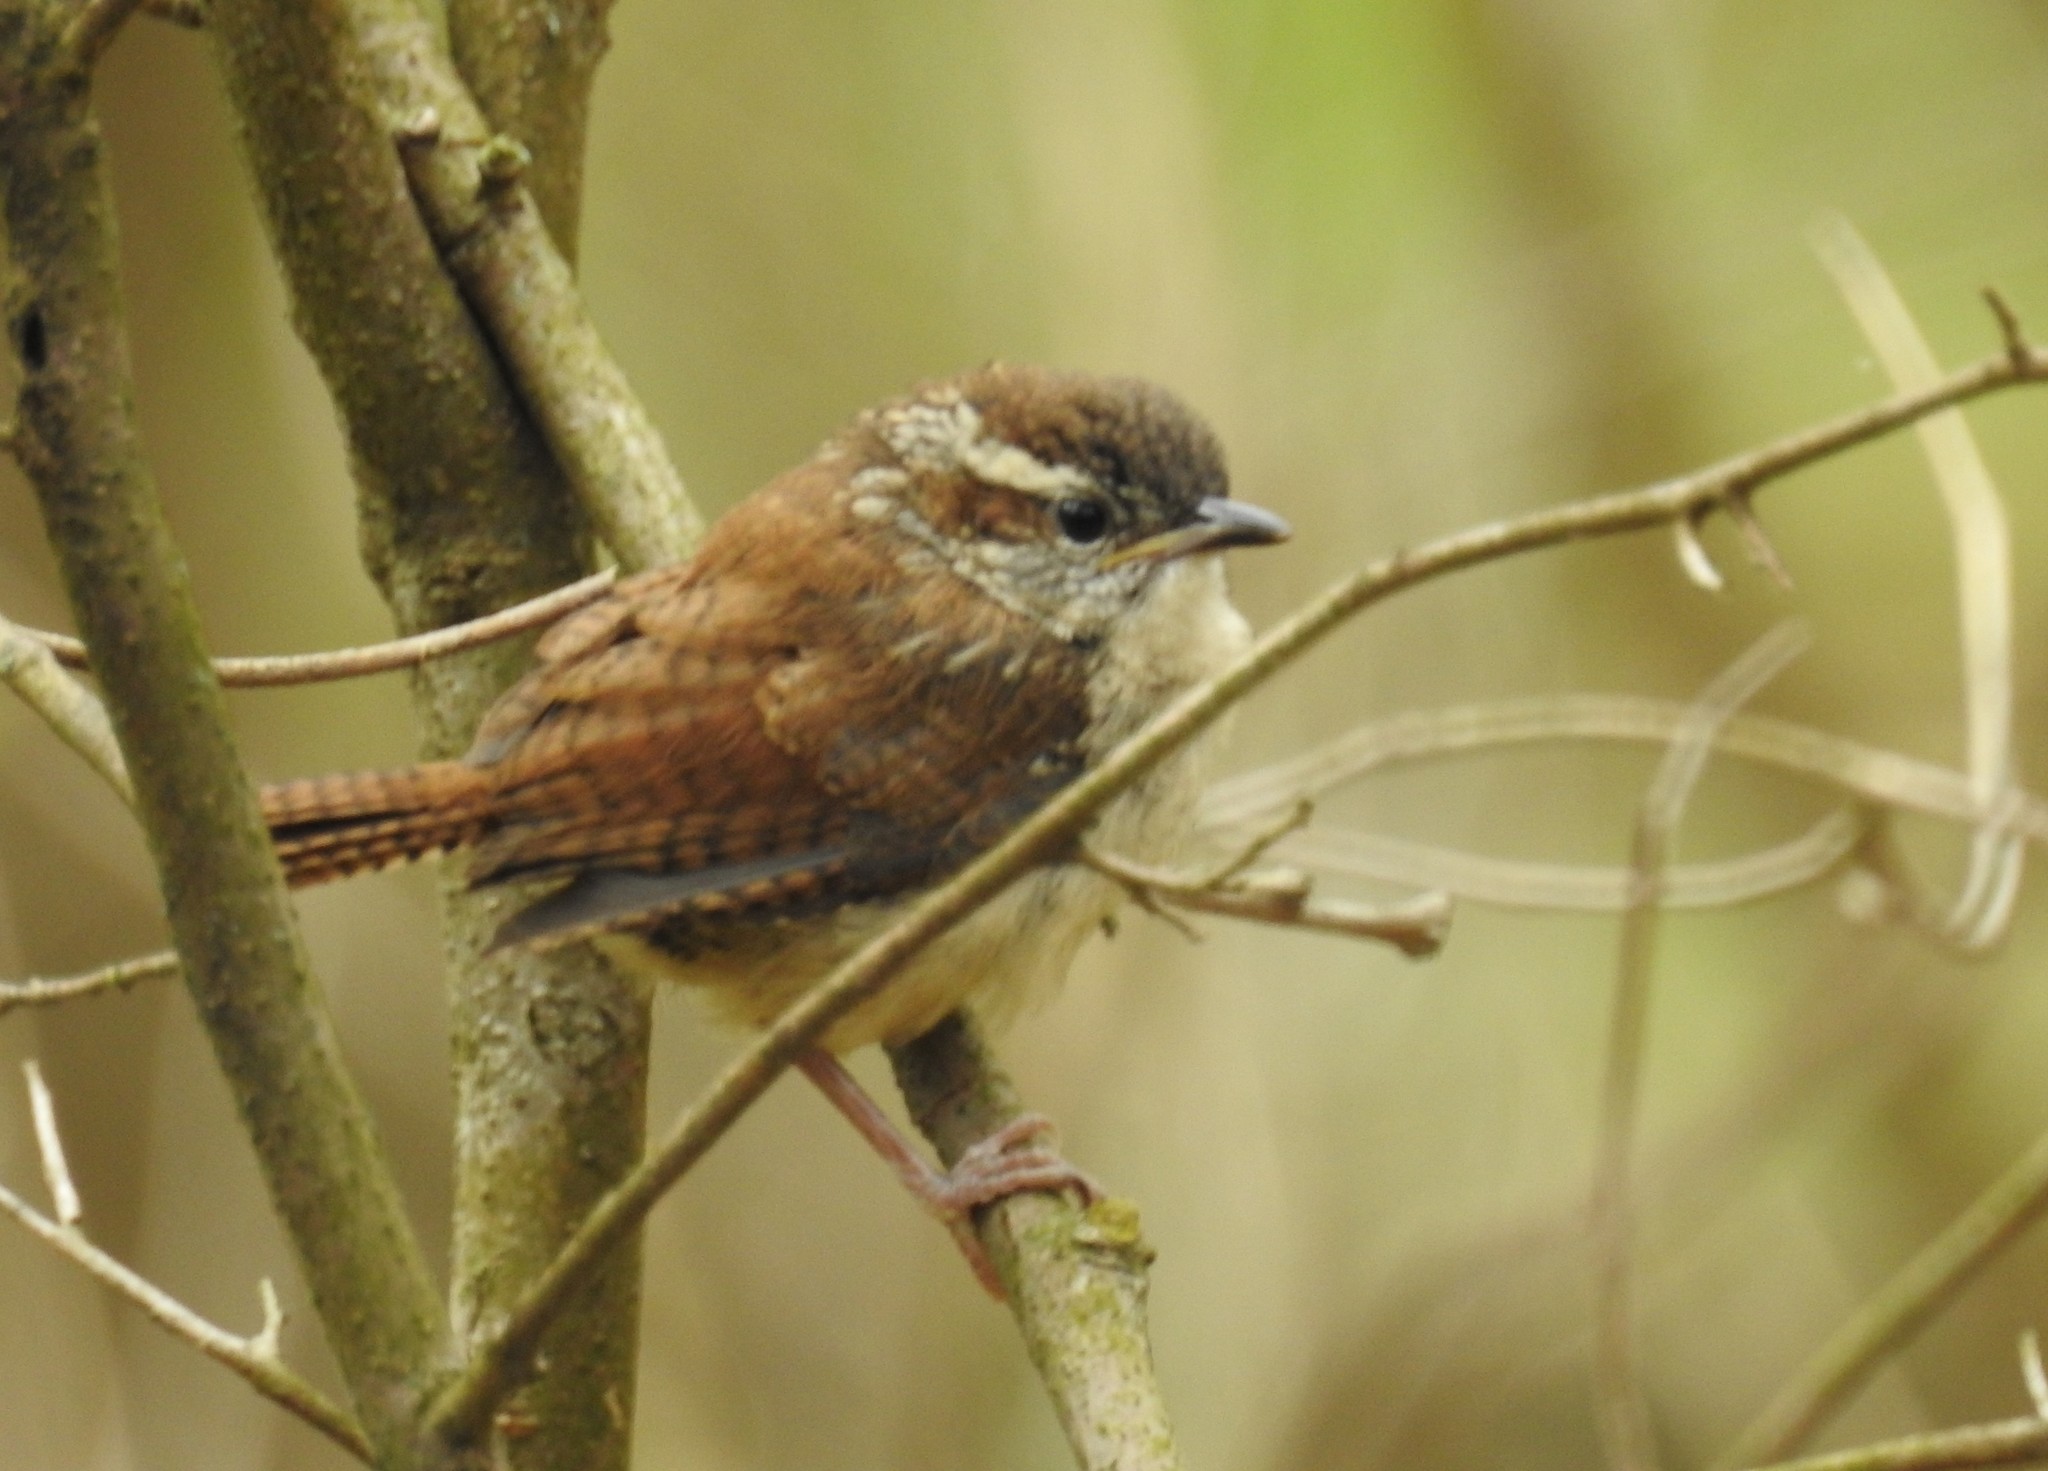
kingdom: Animalia
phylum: Chordata
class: Aves
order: Passeriformes
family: Troglodytidae
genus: Thryothorus
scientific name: Thryothorus ludovicianus
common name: Carolina wren
